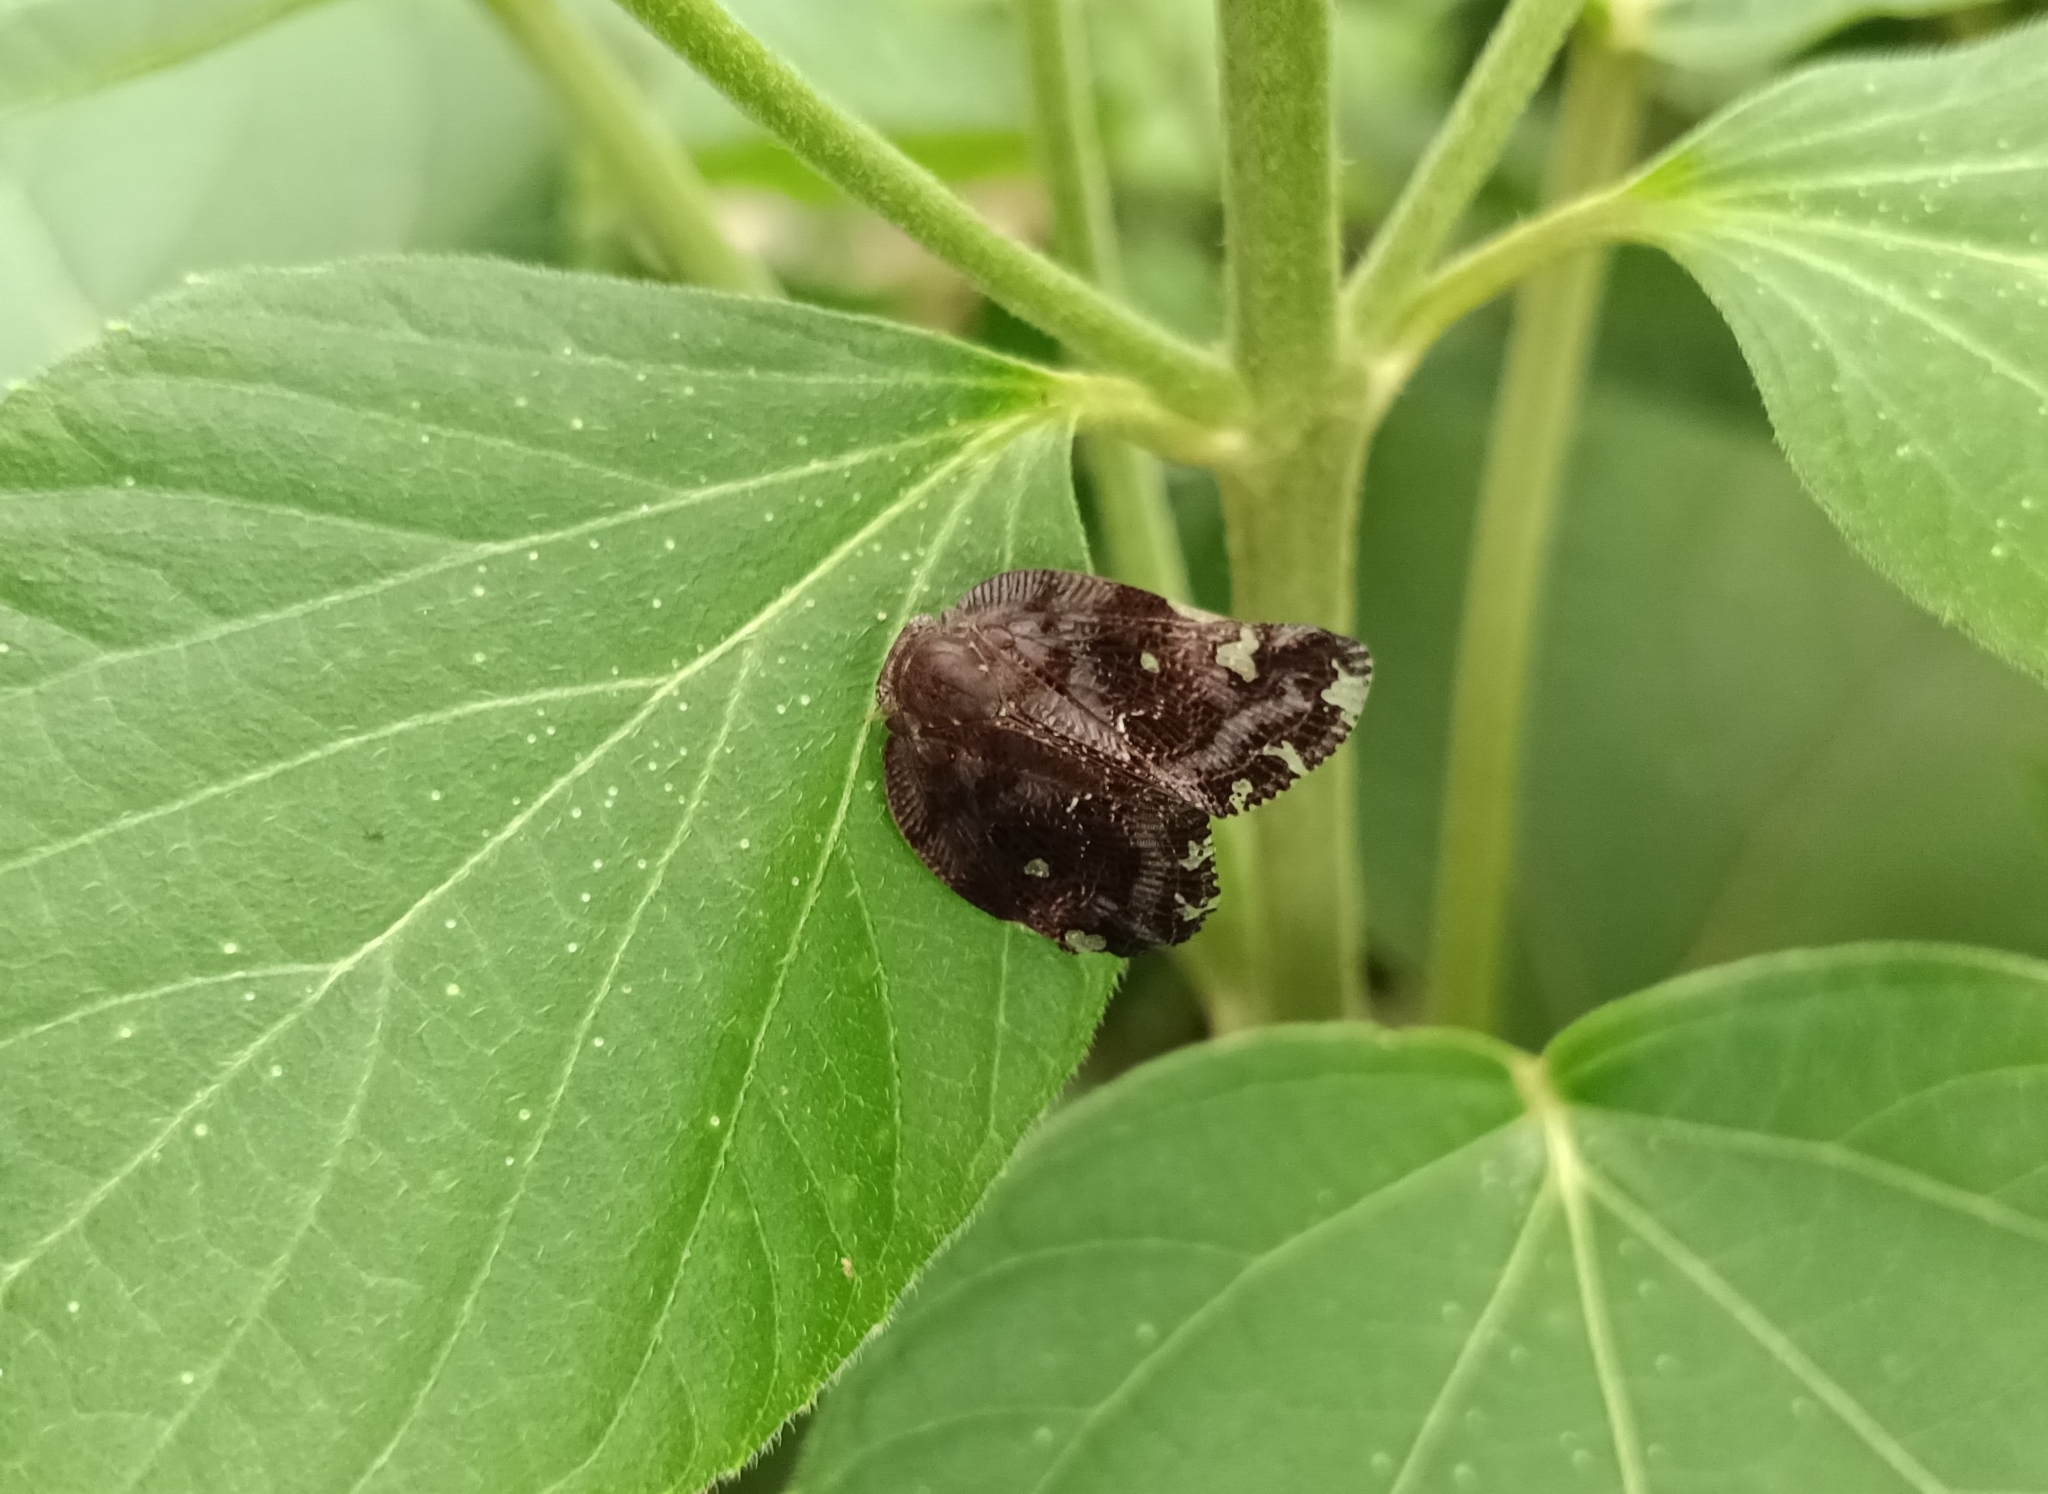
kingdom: Animalia
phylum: Arthropoda
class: Insecta
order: Hemiptera
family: Ricaniidae
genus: Ricania
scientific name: Ricania speculum
